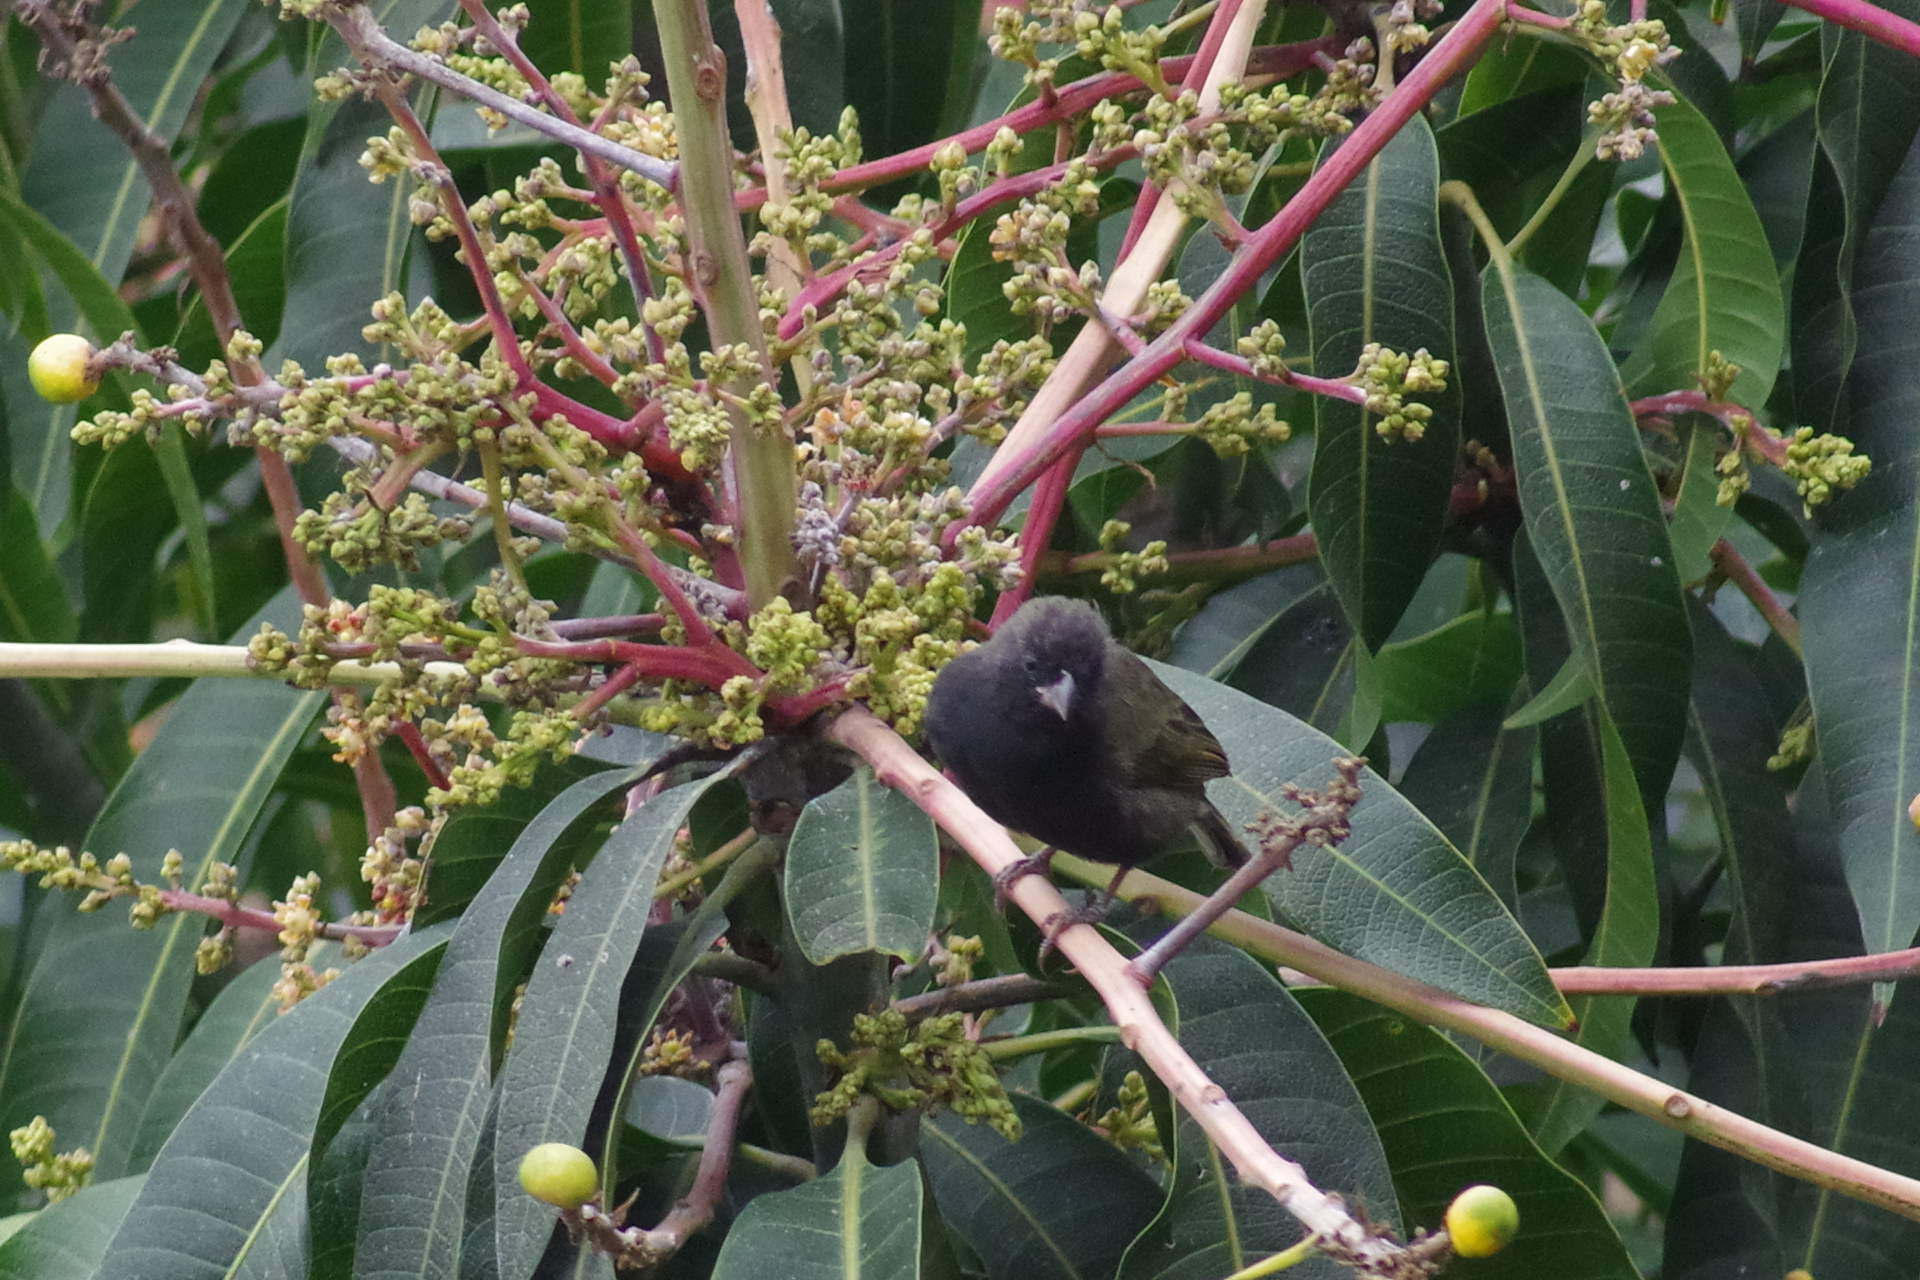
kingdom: Animalia
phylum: Chordata
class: Aves
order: Passeriformes
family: Thraupidae
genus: Melanospiza
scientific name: Melanospiza bicolor
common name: Black-faced grassquit
